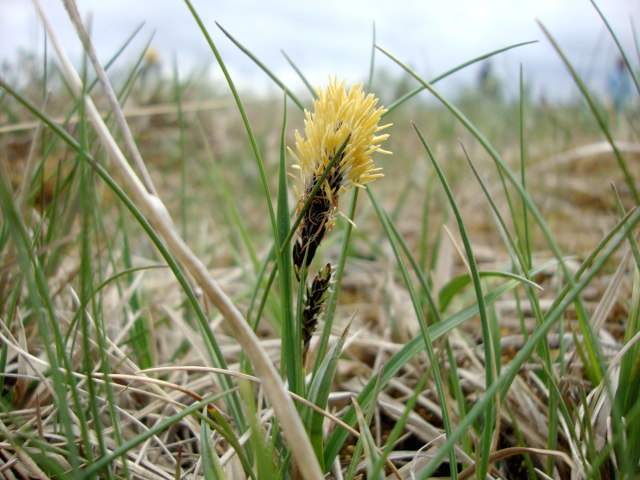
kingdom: Plantae
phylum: Tracheophyta
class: Liliopsida
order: Poales
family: Cyperaceae
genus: Carex
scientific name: Carex bigelowii
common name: Stiff sedge
